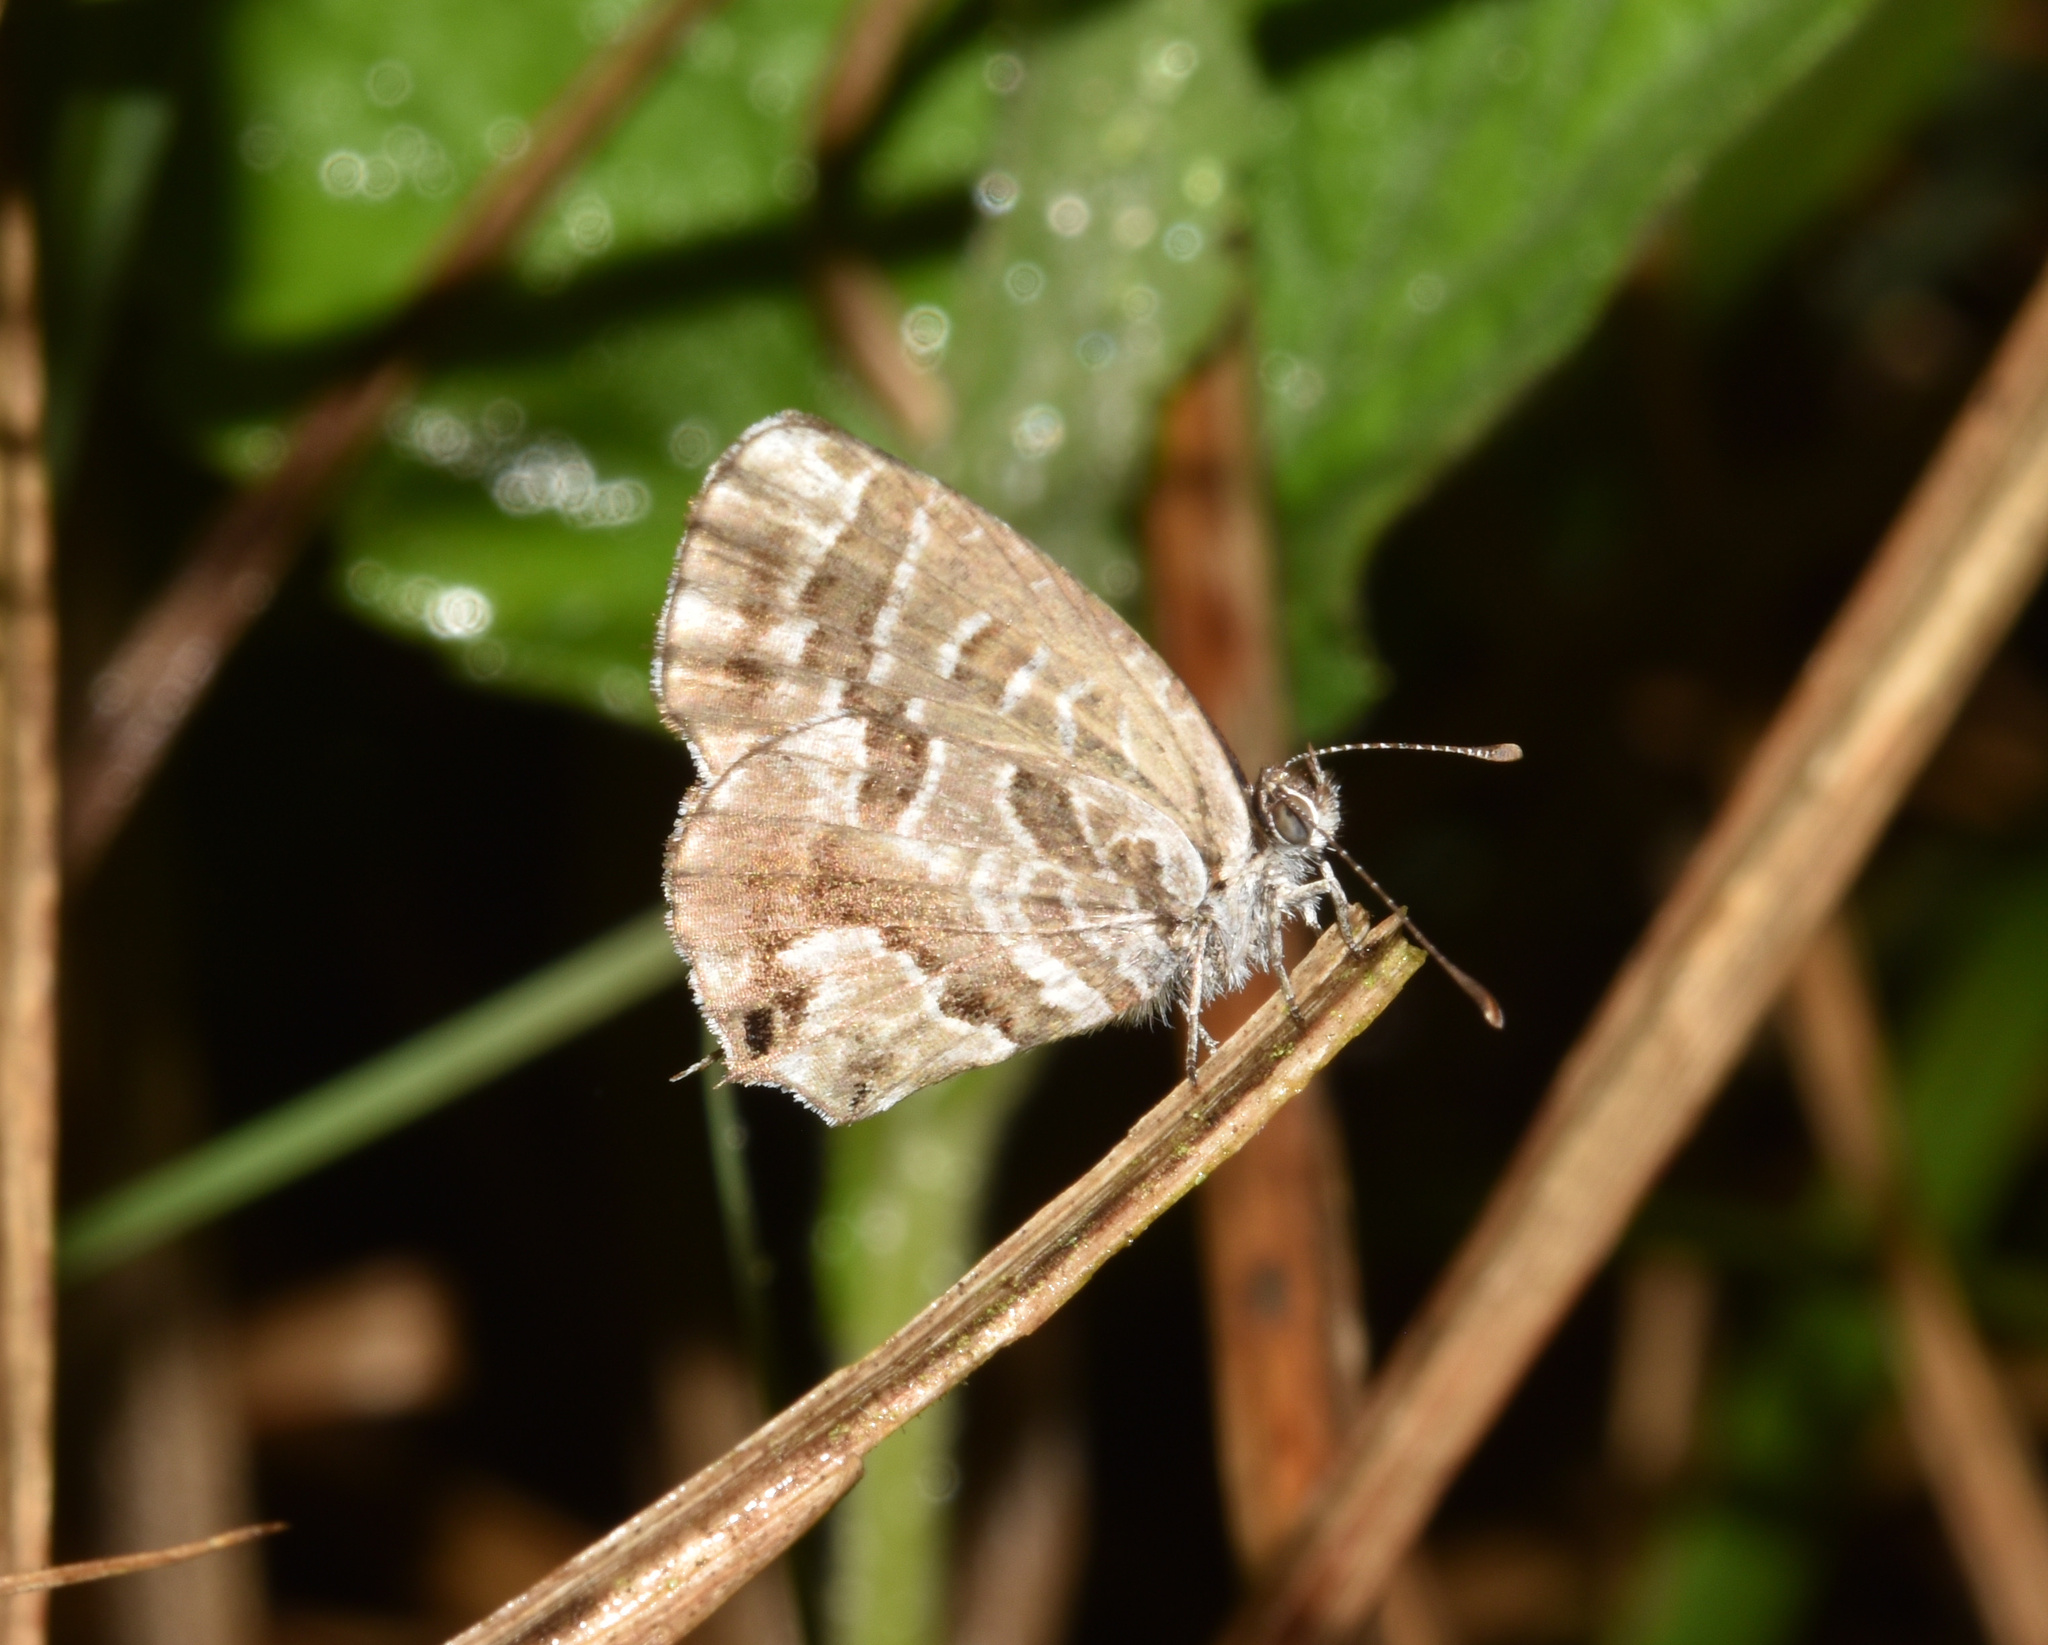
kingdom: Animalia
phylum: Arthropoda
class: Insecta
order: Lepidoptera
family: Lycaenidae
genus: Cacyreus
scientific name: Cacyreus marshalli
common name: Geranium bronze
